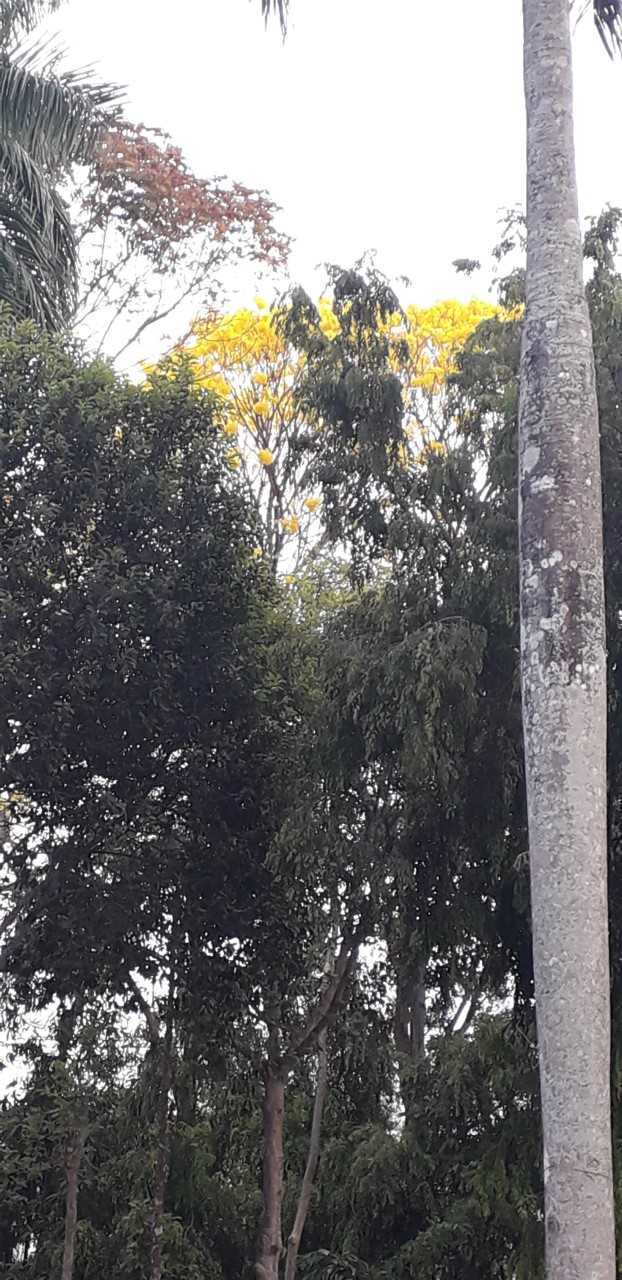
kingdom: Plantae
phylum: Tracheophyta
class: Magnoliopsida
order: Lamiales
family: Bignoniaceae
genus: Handroanthus
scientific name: Handroanthus guayacan
